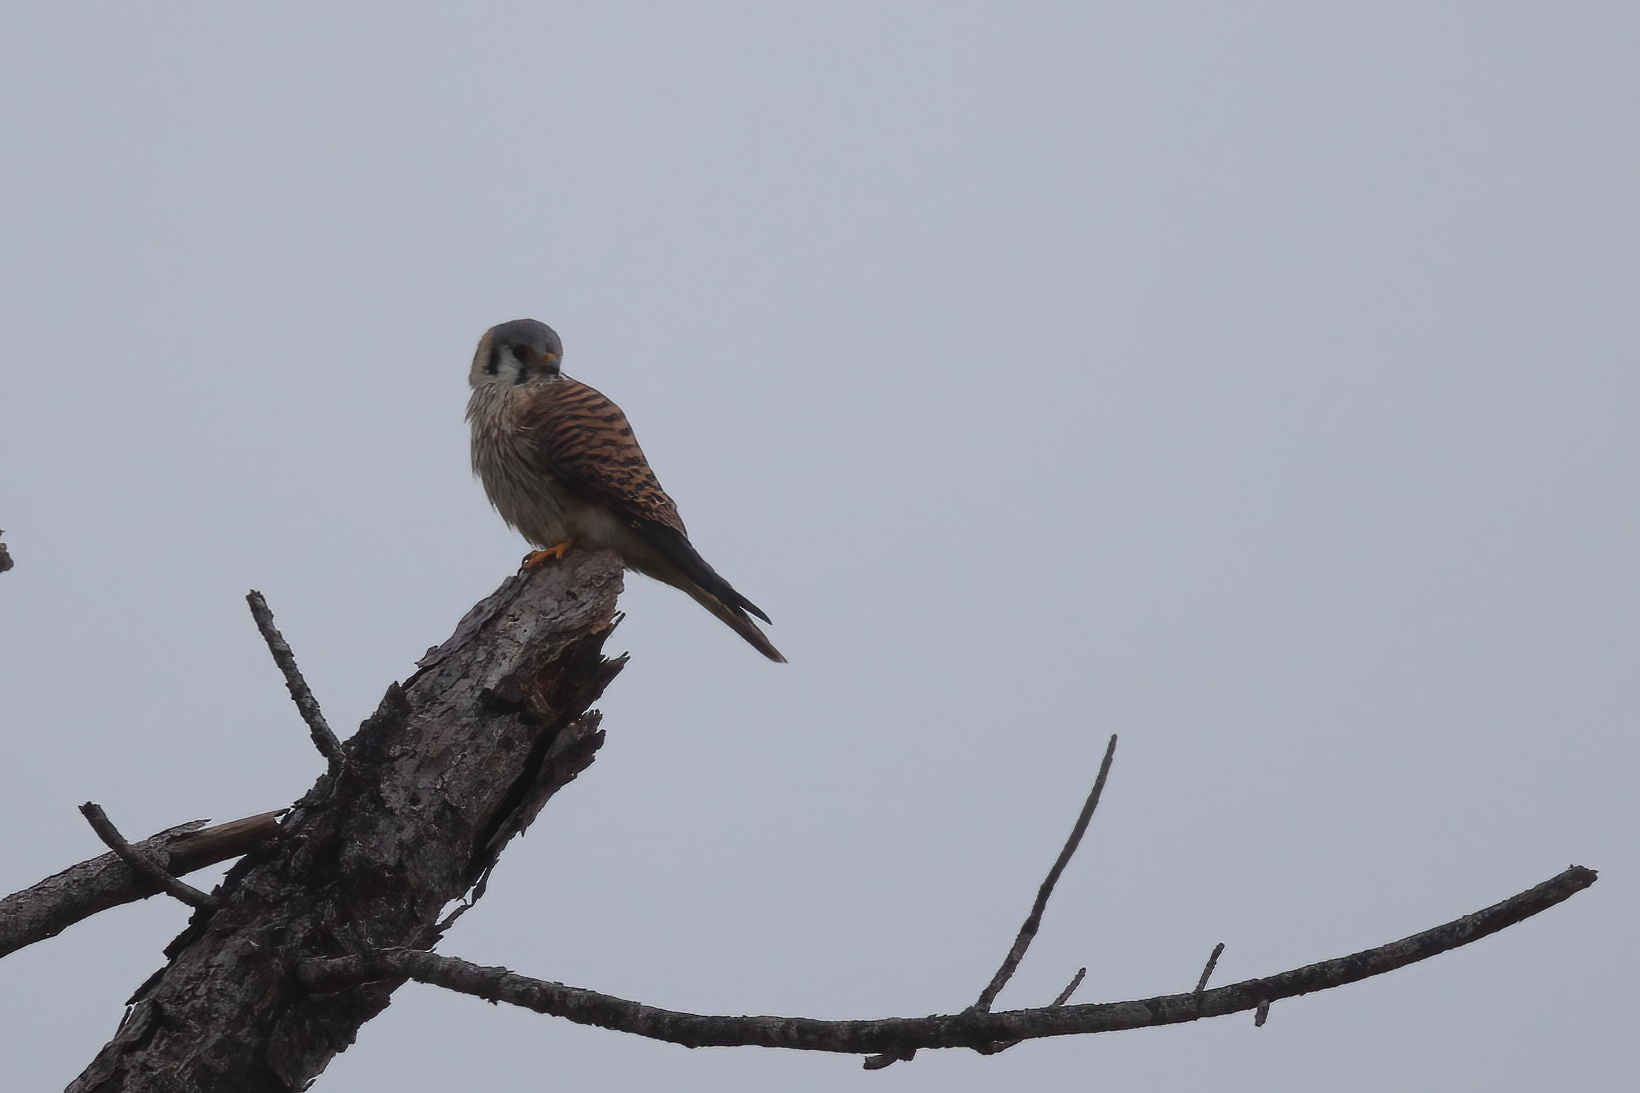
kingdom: Animalia
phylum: Chordata
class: Aves
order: Falconiformes
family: Falconidae
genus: Falco
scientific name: Falco sparverius
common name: American kestrel
